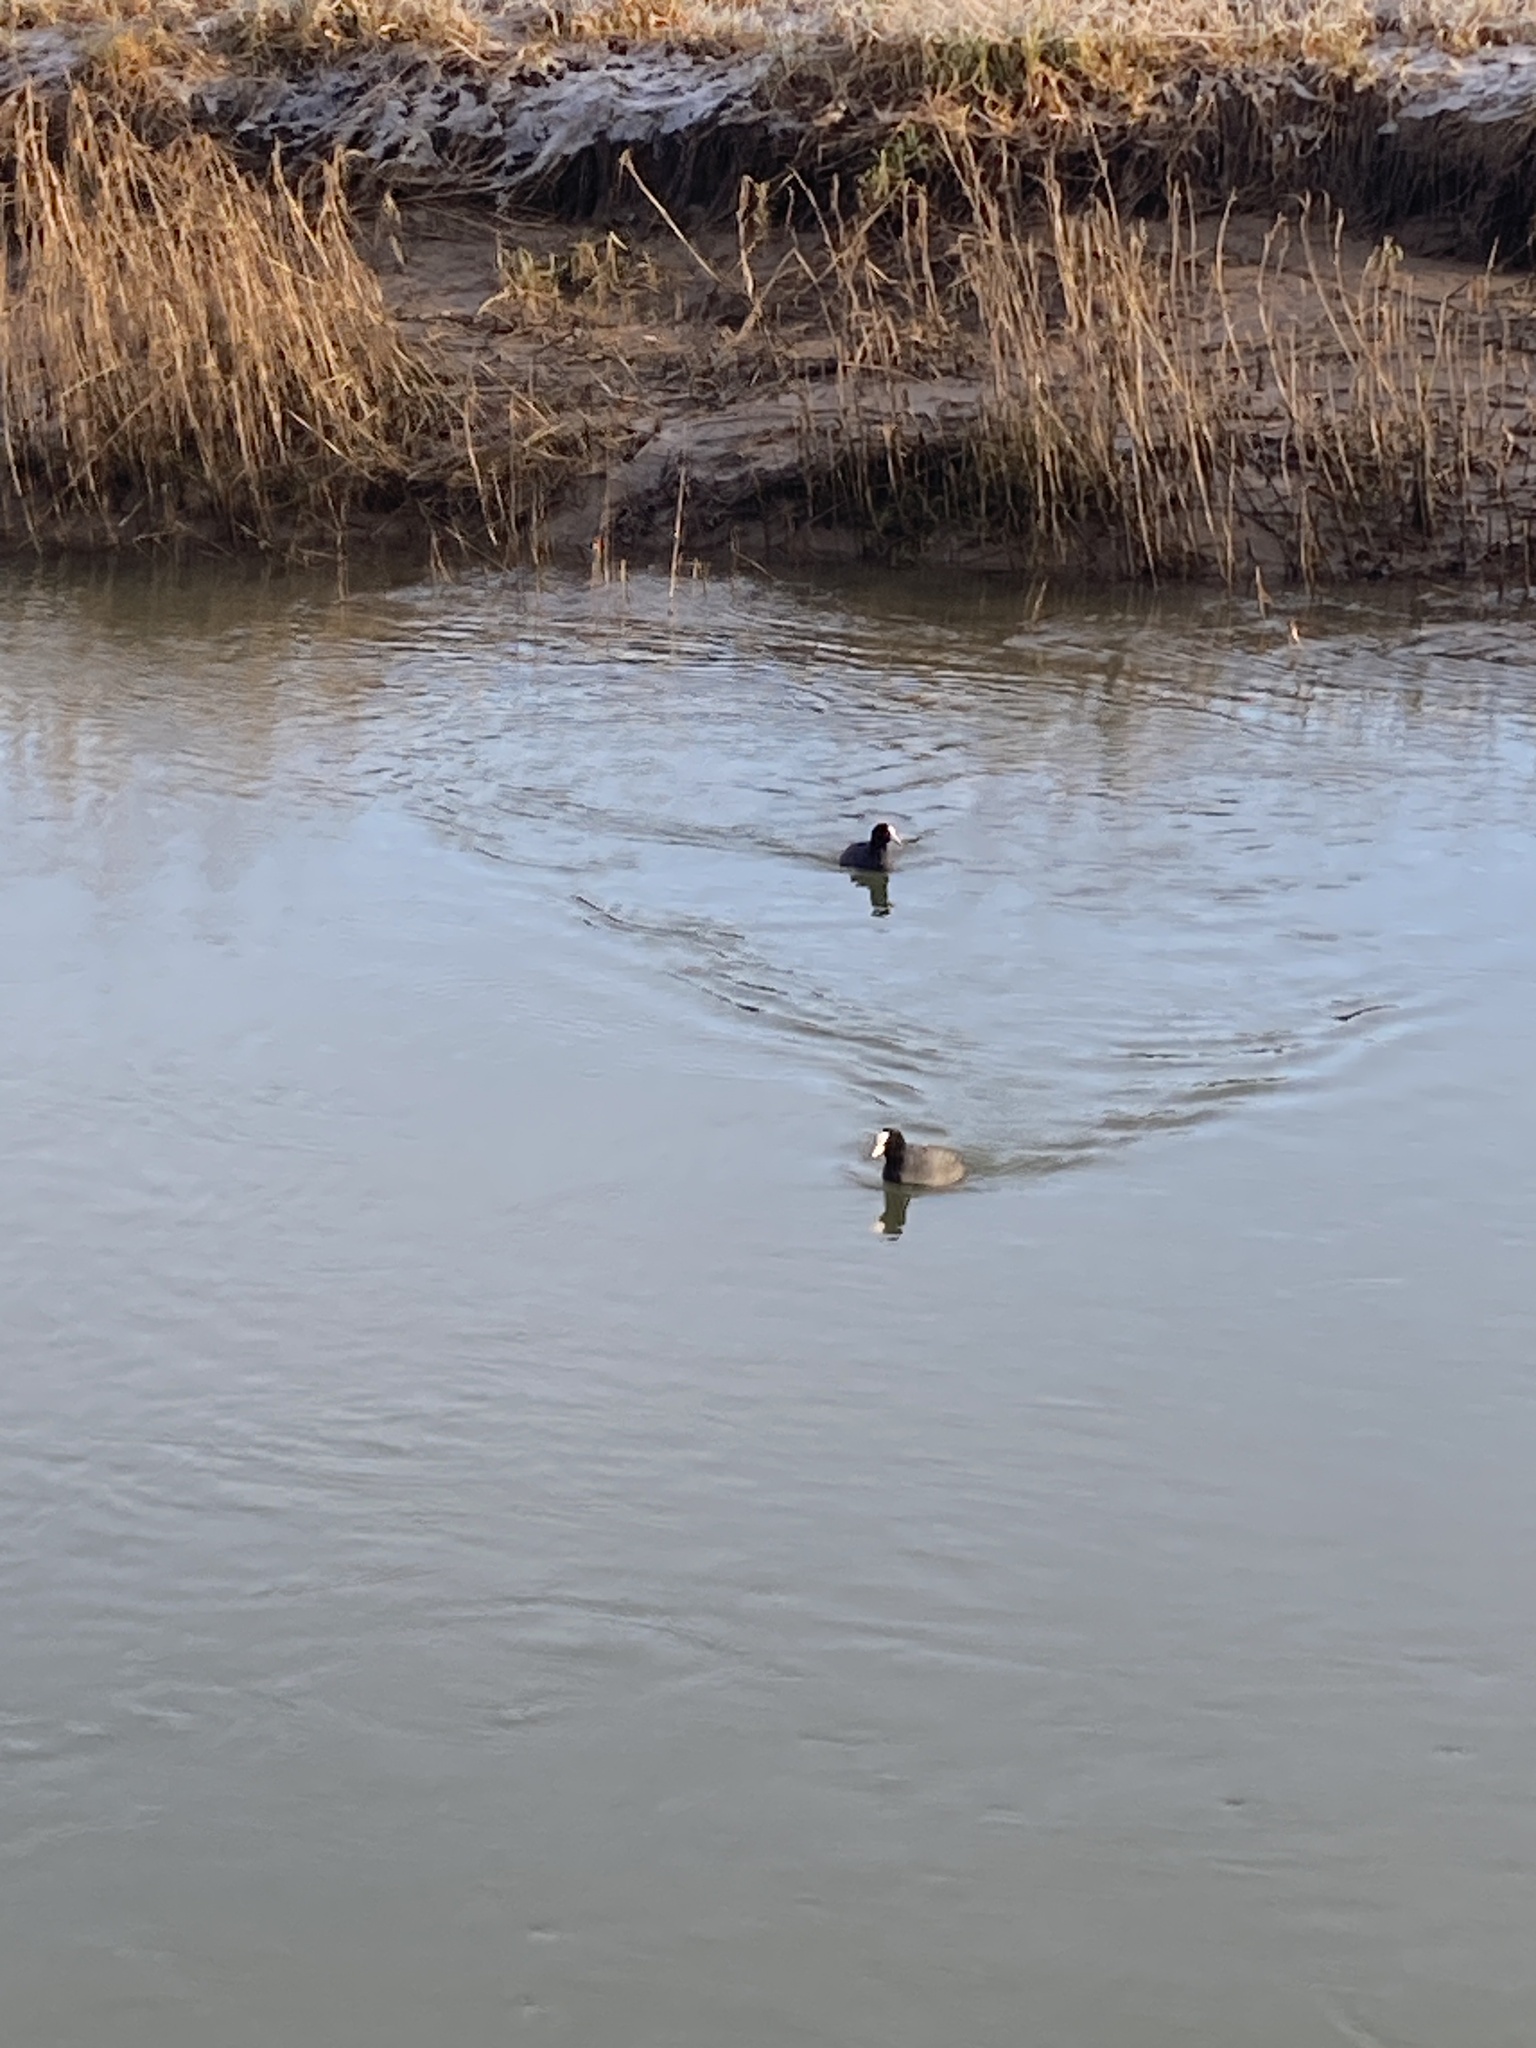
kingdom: Animalia
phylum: Chordata
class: Aves
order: Gruiformes
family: Rallidae
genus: Fulica
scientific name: Fulica atra
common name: Eurasian coot
